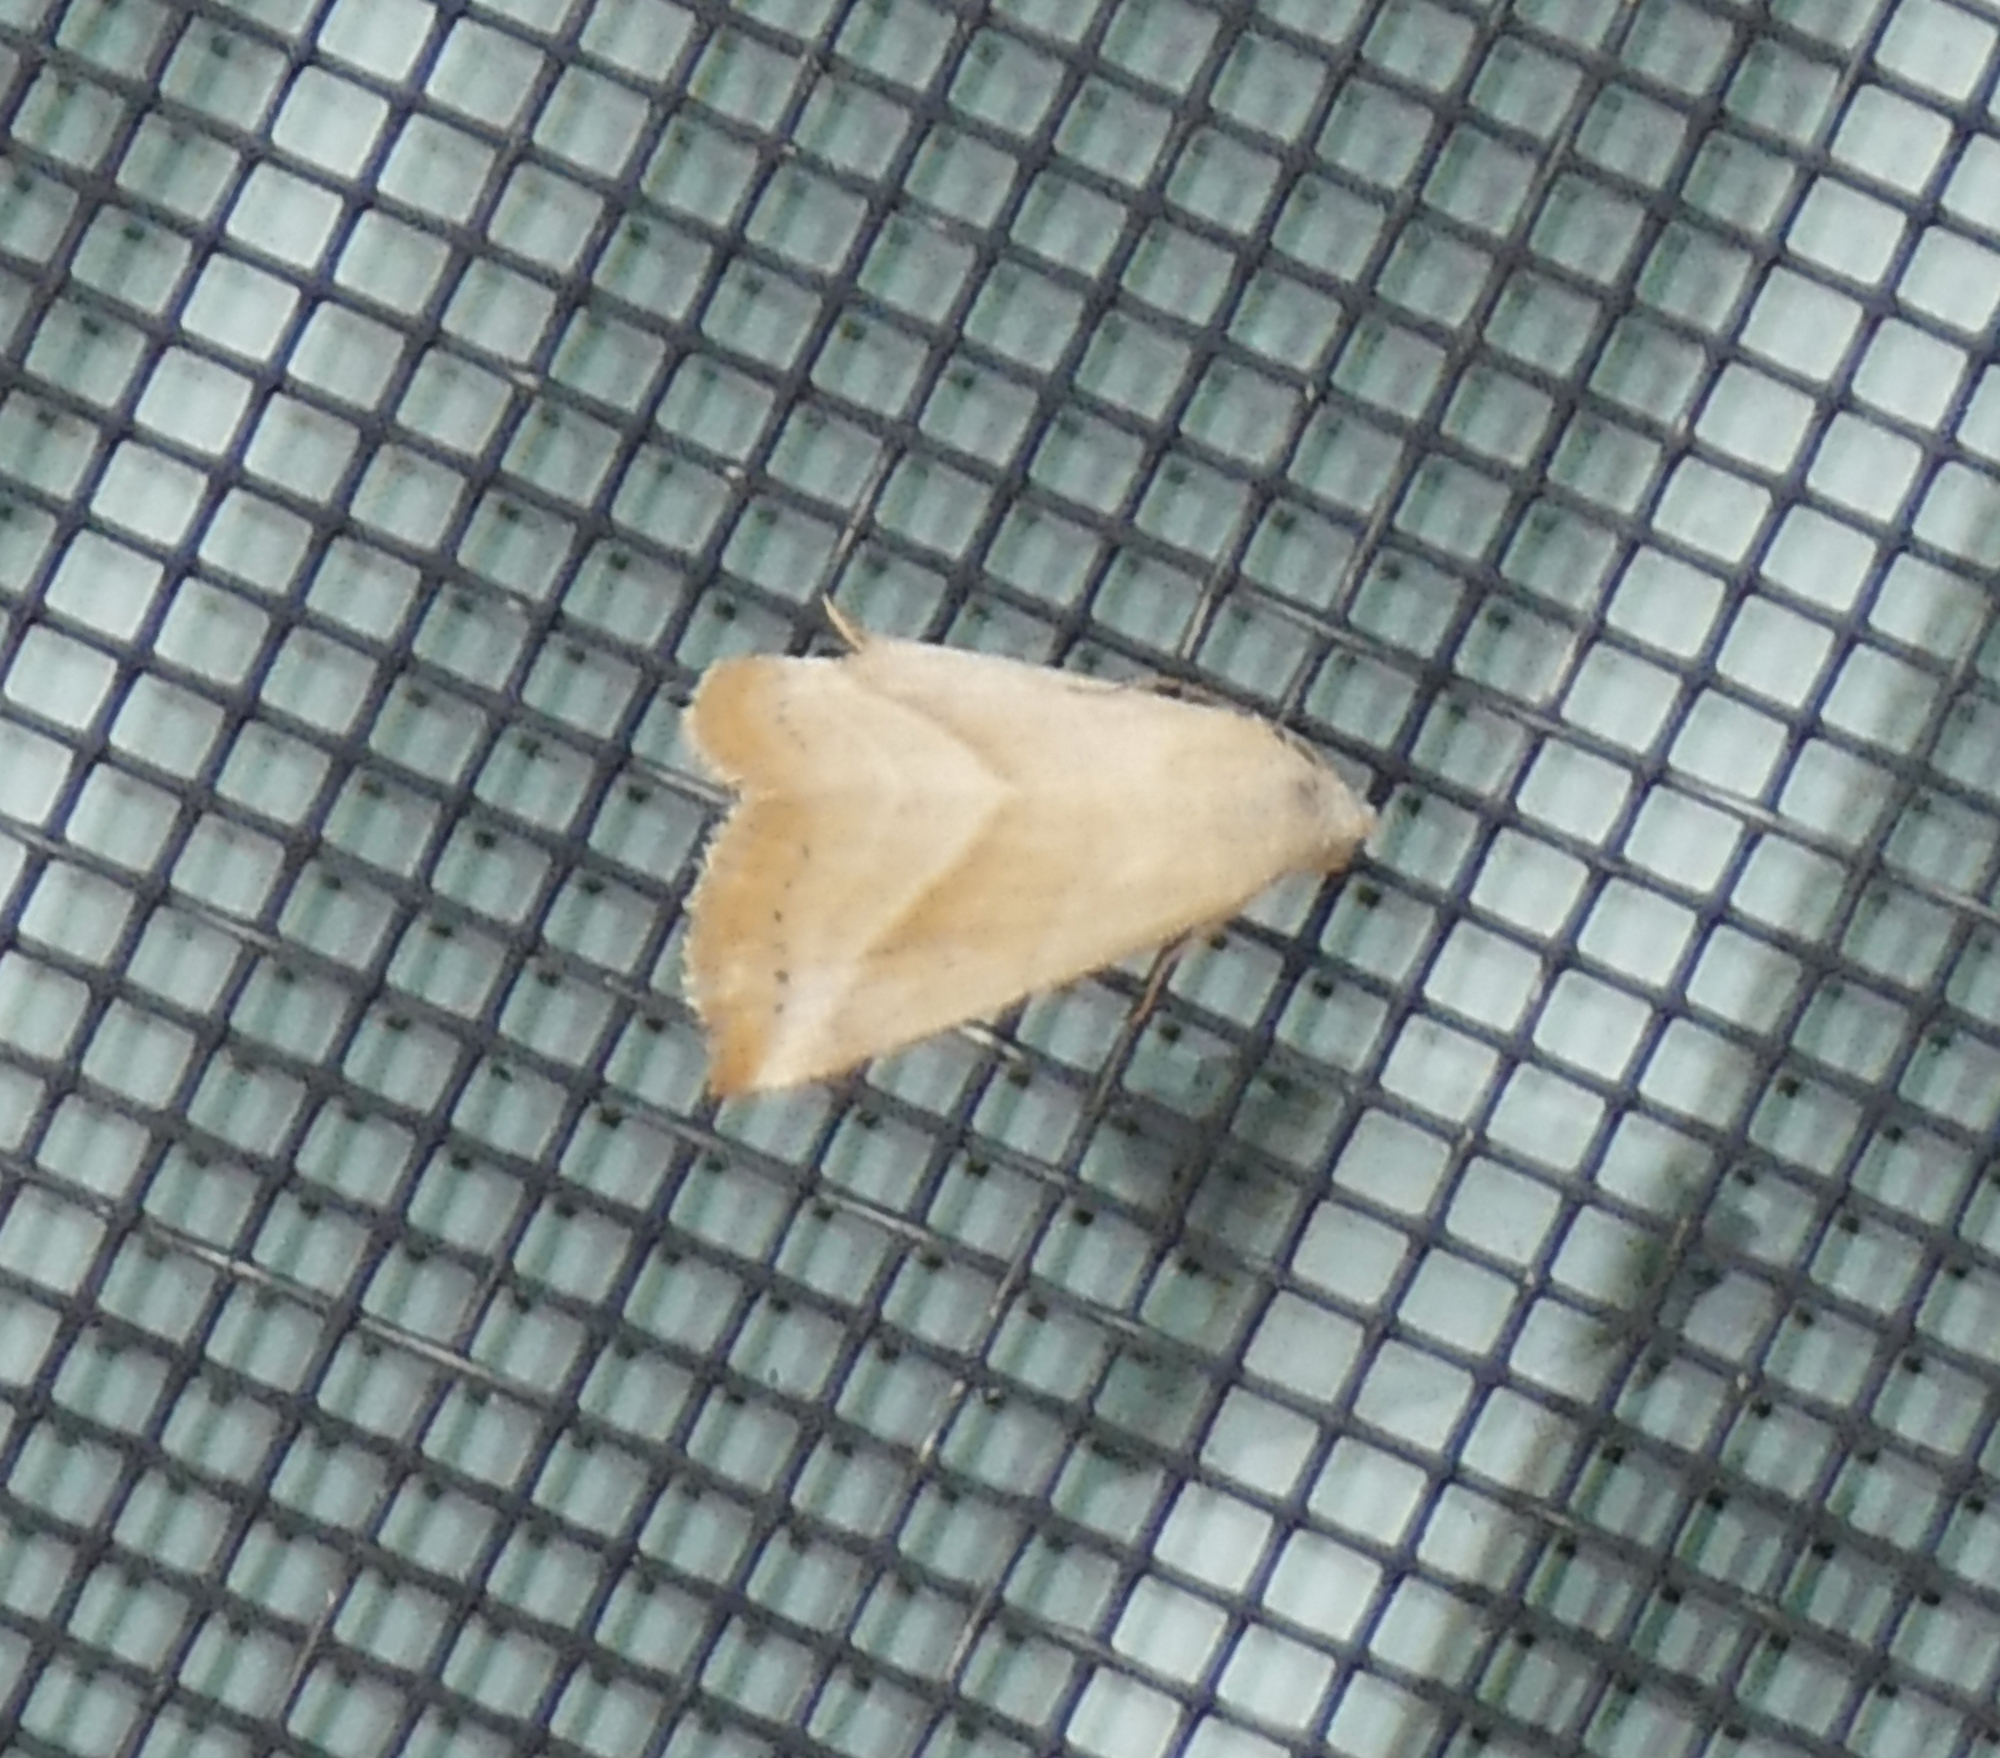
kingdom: Animalia
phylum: Arthropoda
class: Insecta
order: Lepidoptera
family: Noctuidae
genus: Eublemma
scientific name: Eublemma recta
